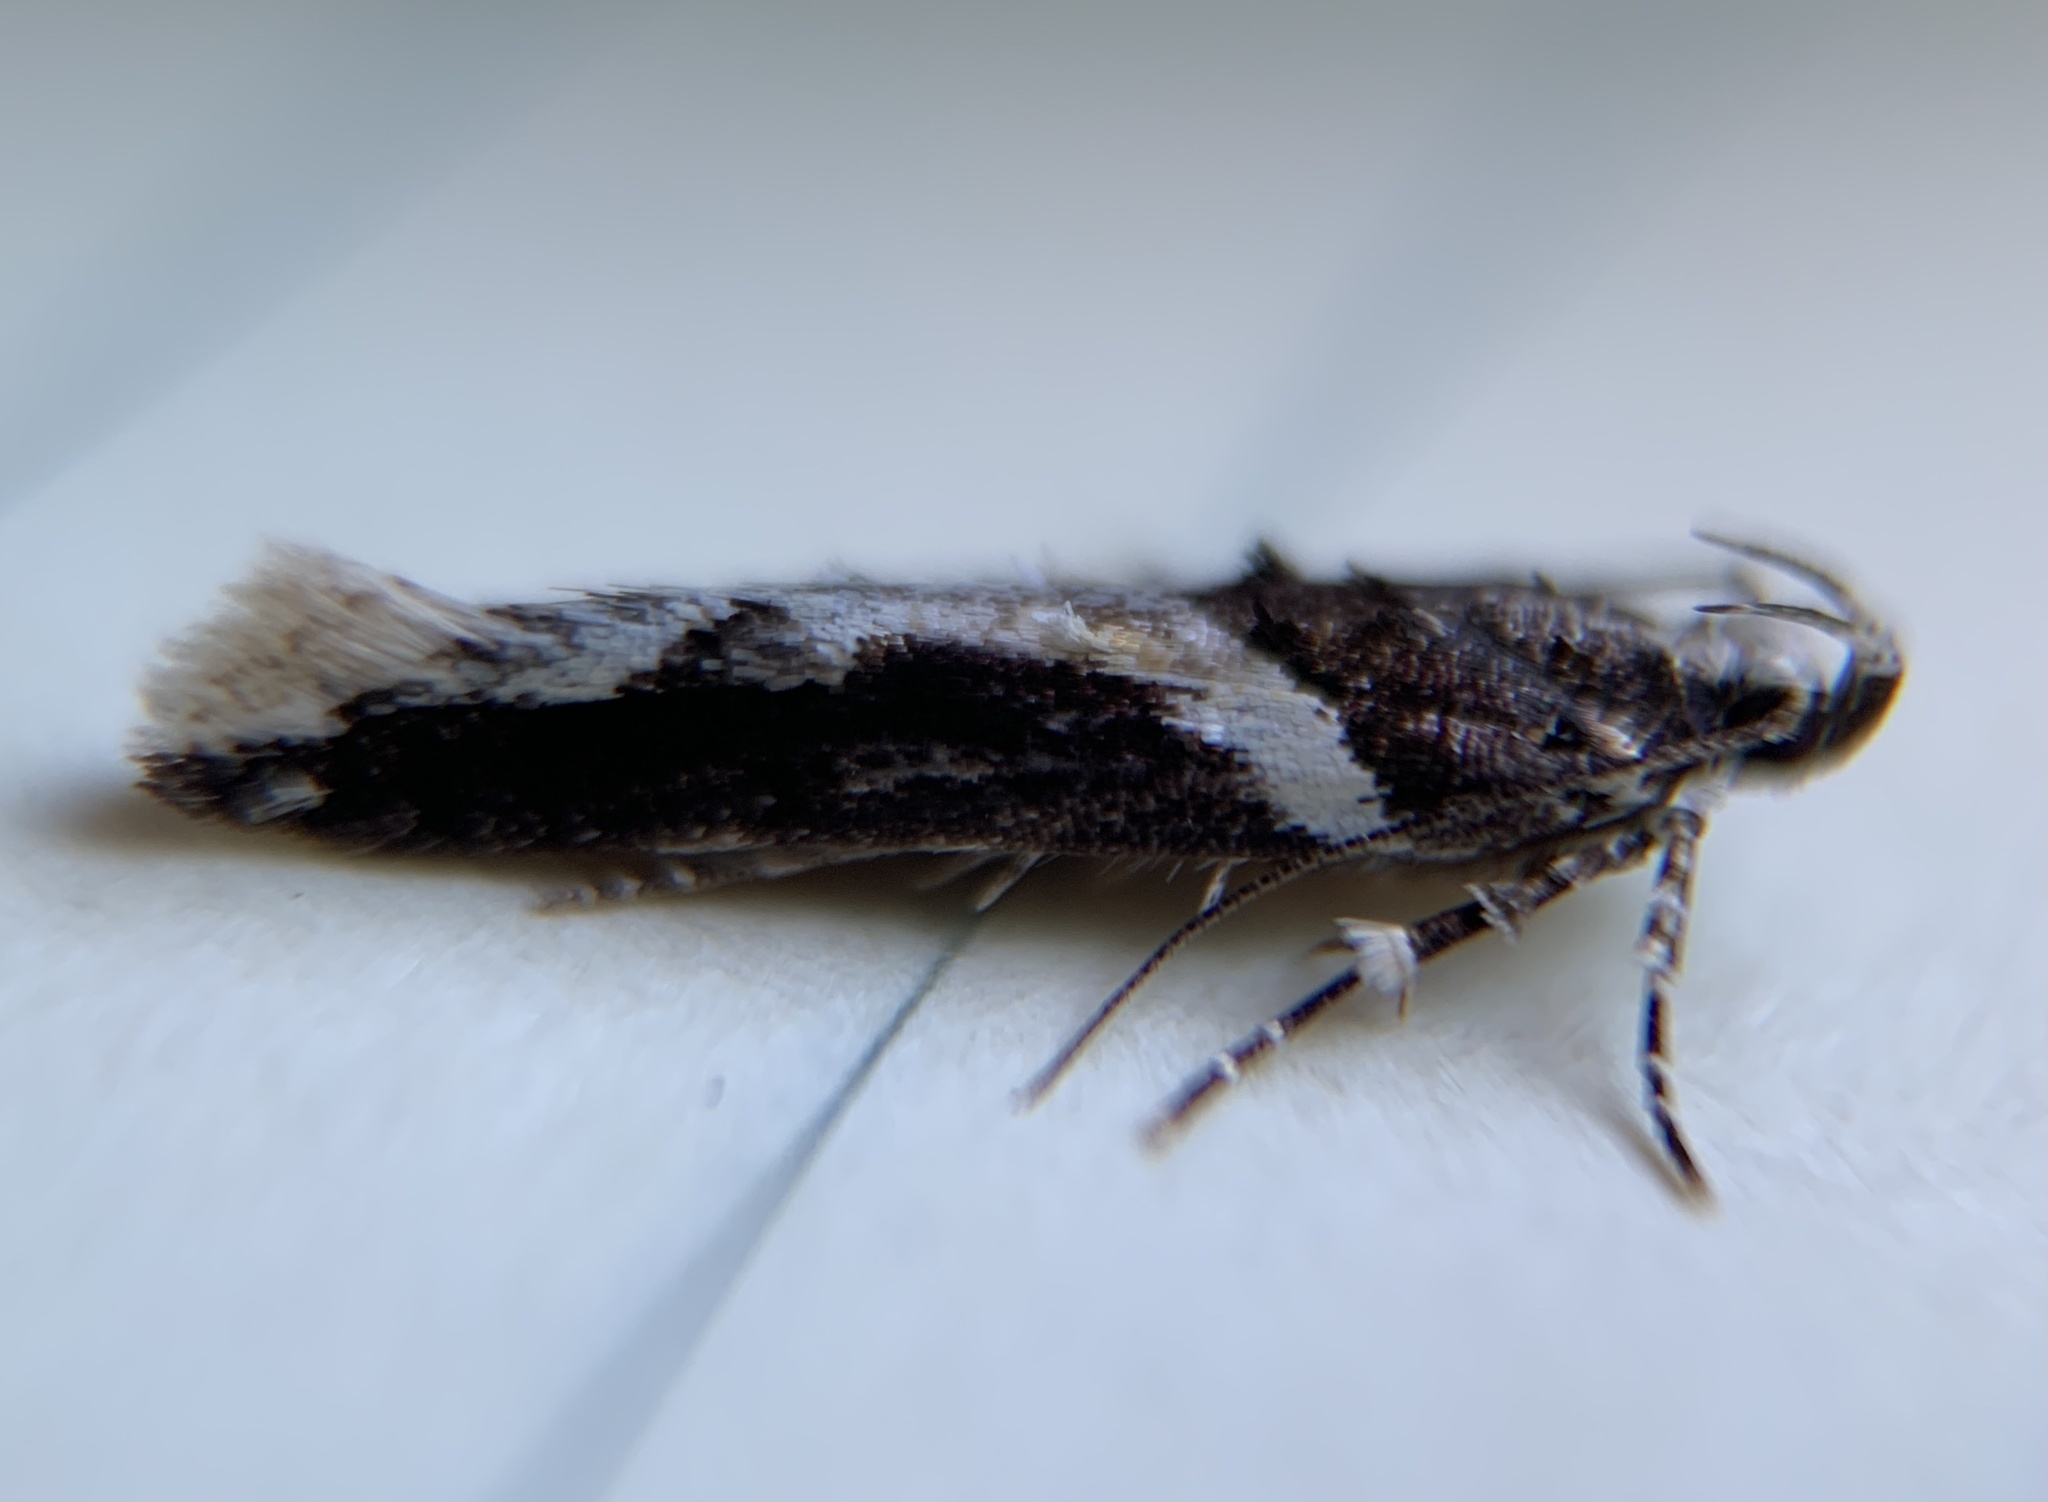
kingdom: Animalia
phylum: Arthropoda
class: Insecta
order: Lepidoptera
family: Gelechiidae
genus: Telphusa
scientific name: Telphusa longifasciella
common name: Y-backed telphusa
